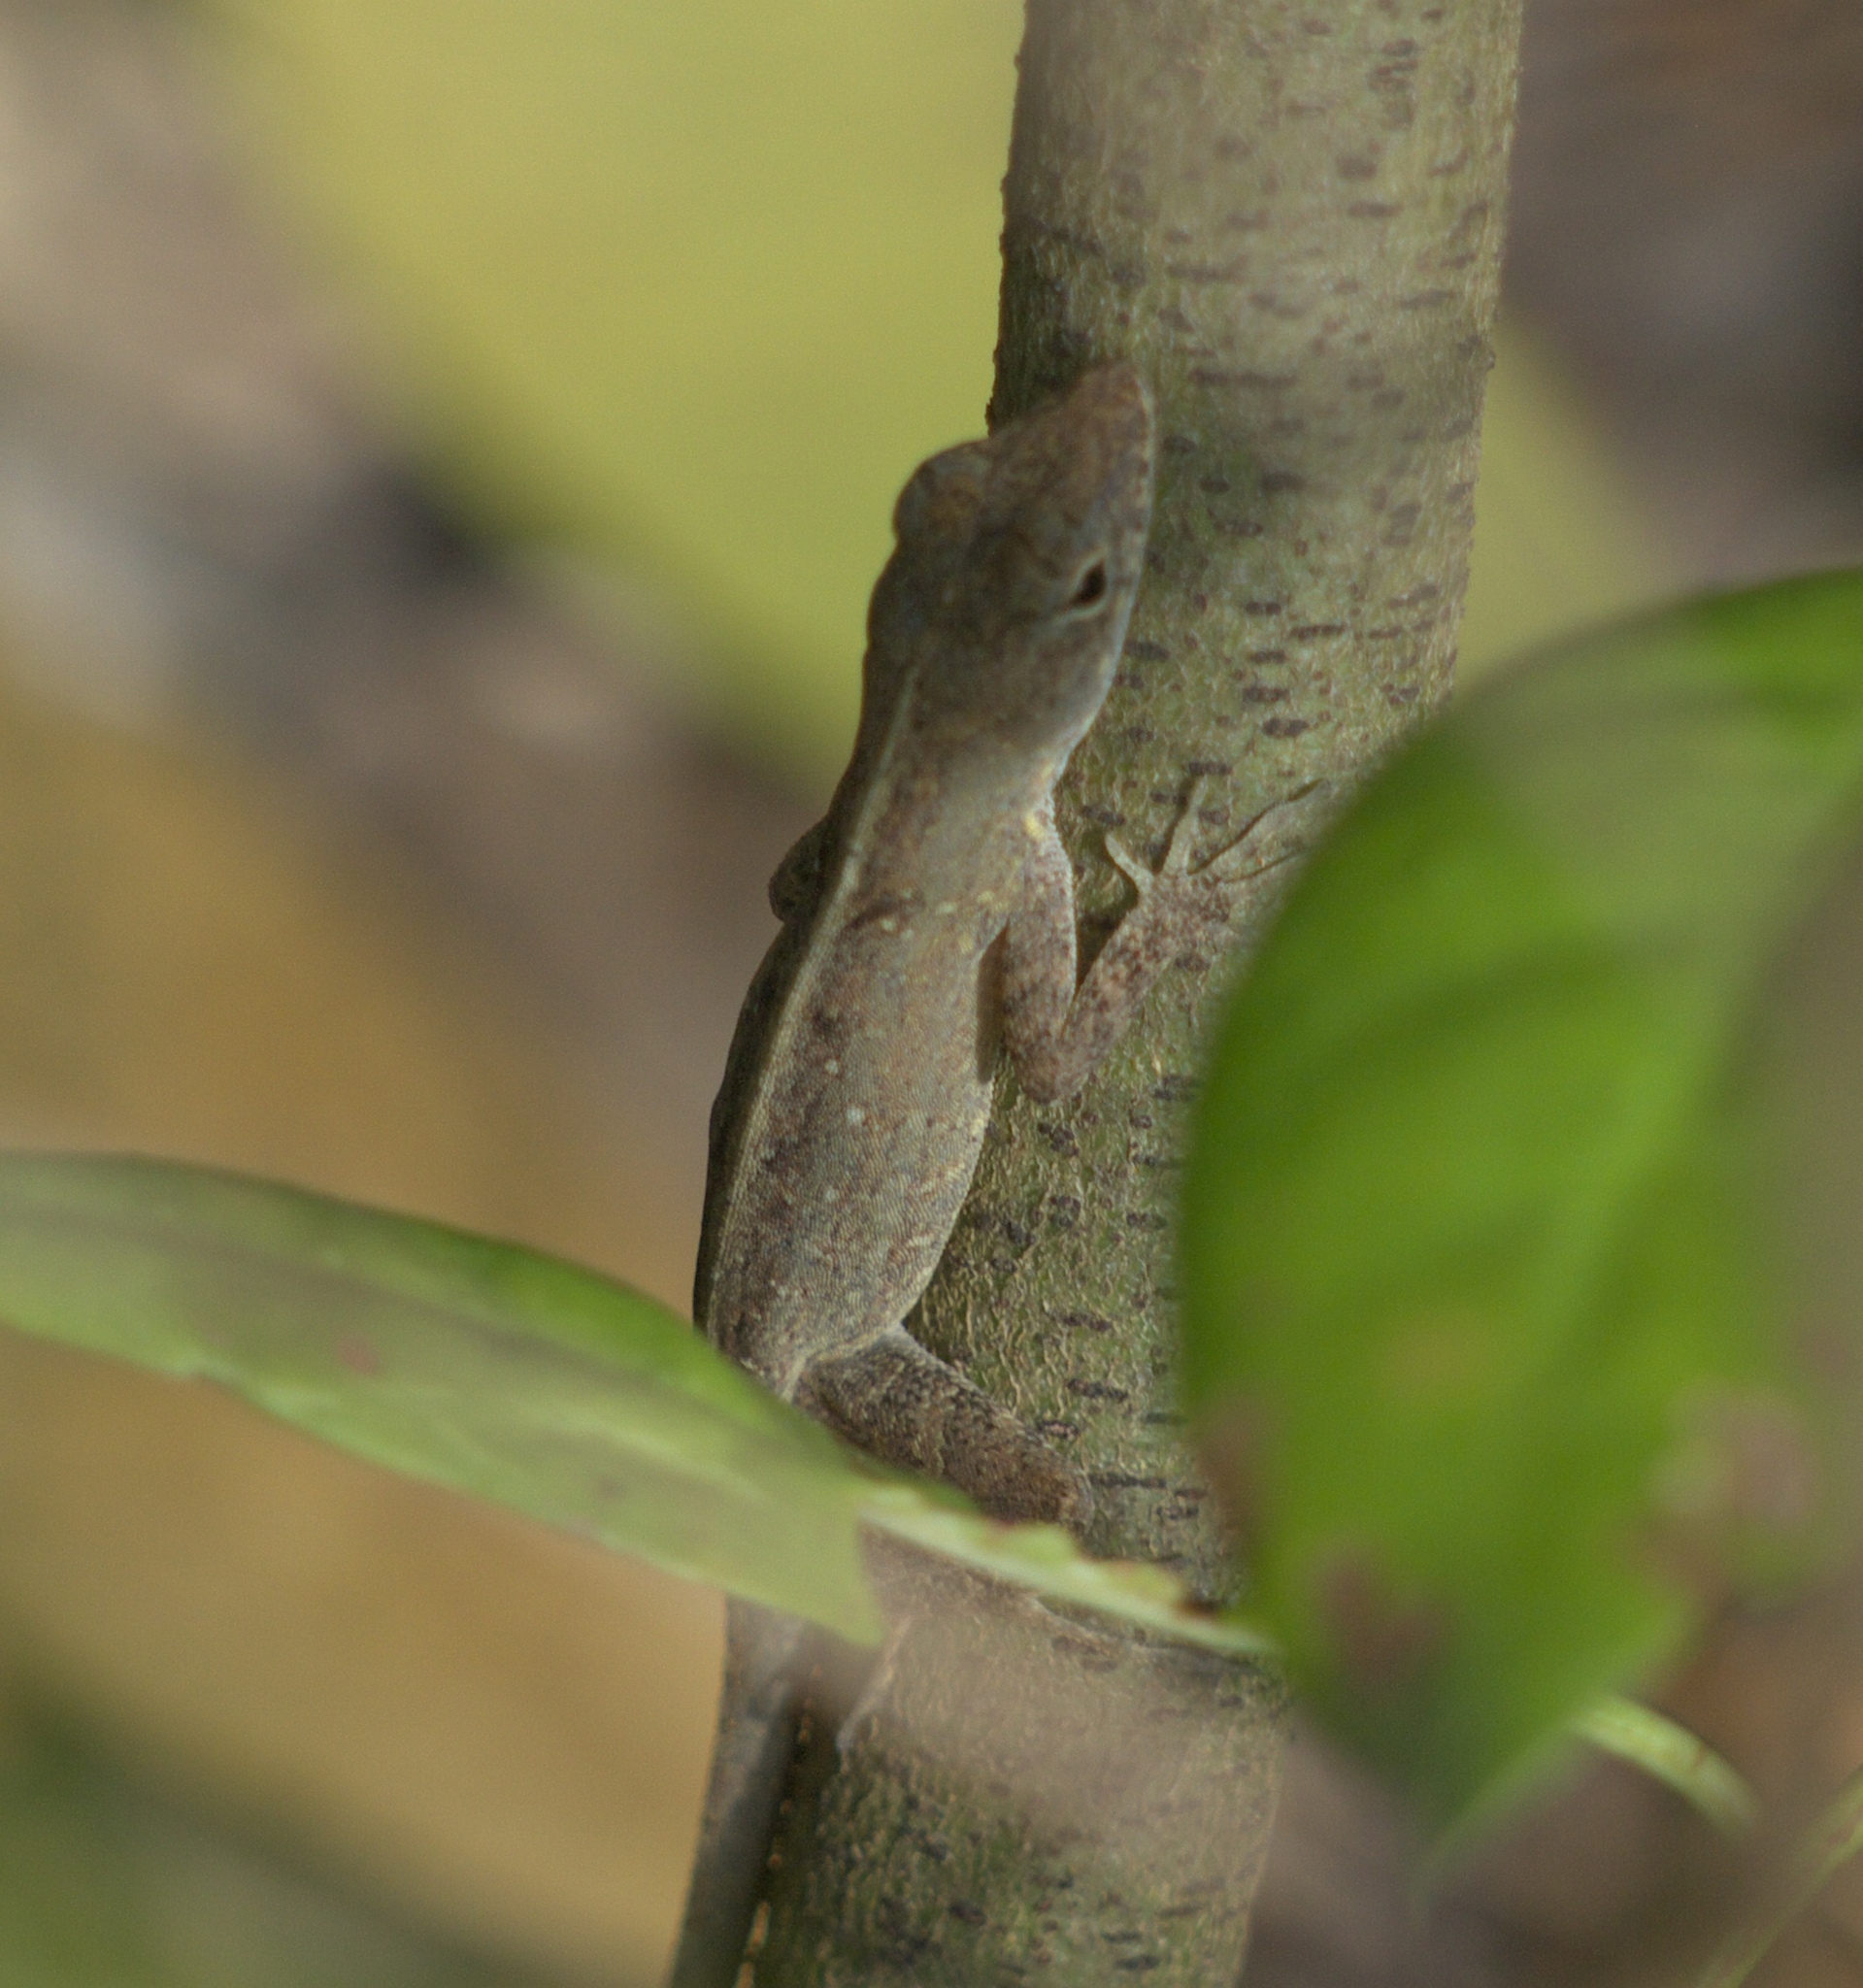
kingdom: Animalia
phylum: Chordata
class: Squamata
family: Dactyloidae
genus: Anolis
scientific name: Anolis sagrei
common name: Brown anole
